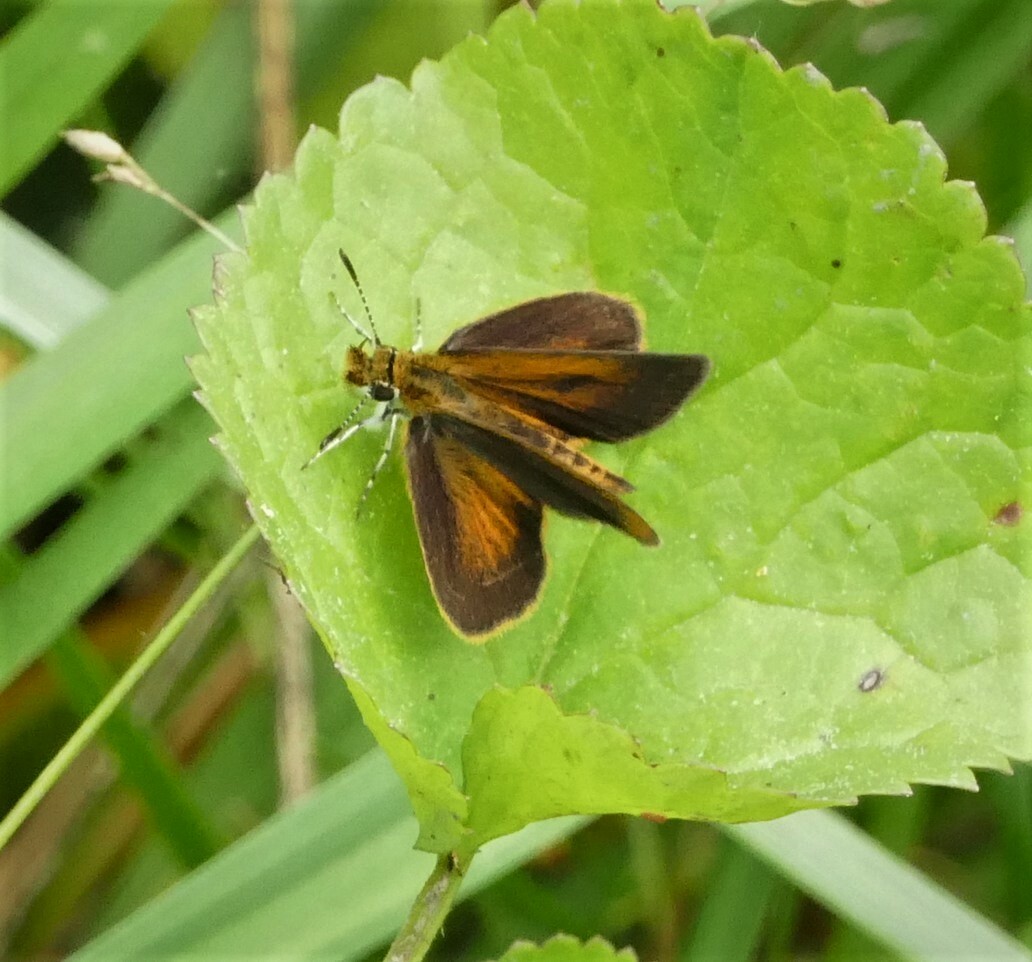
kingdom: Animalia
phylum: Arthropoda
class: Insecta
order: Lepidoptera
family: Hesperiidae
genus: Ancyloxypha
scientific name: Ancyloxypha numitor
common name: Least skipper
